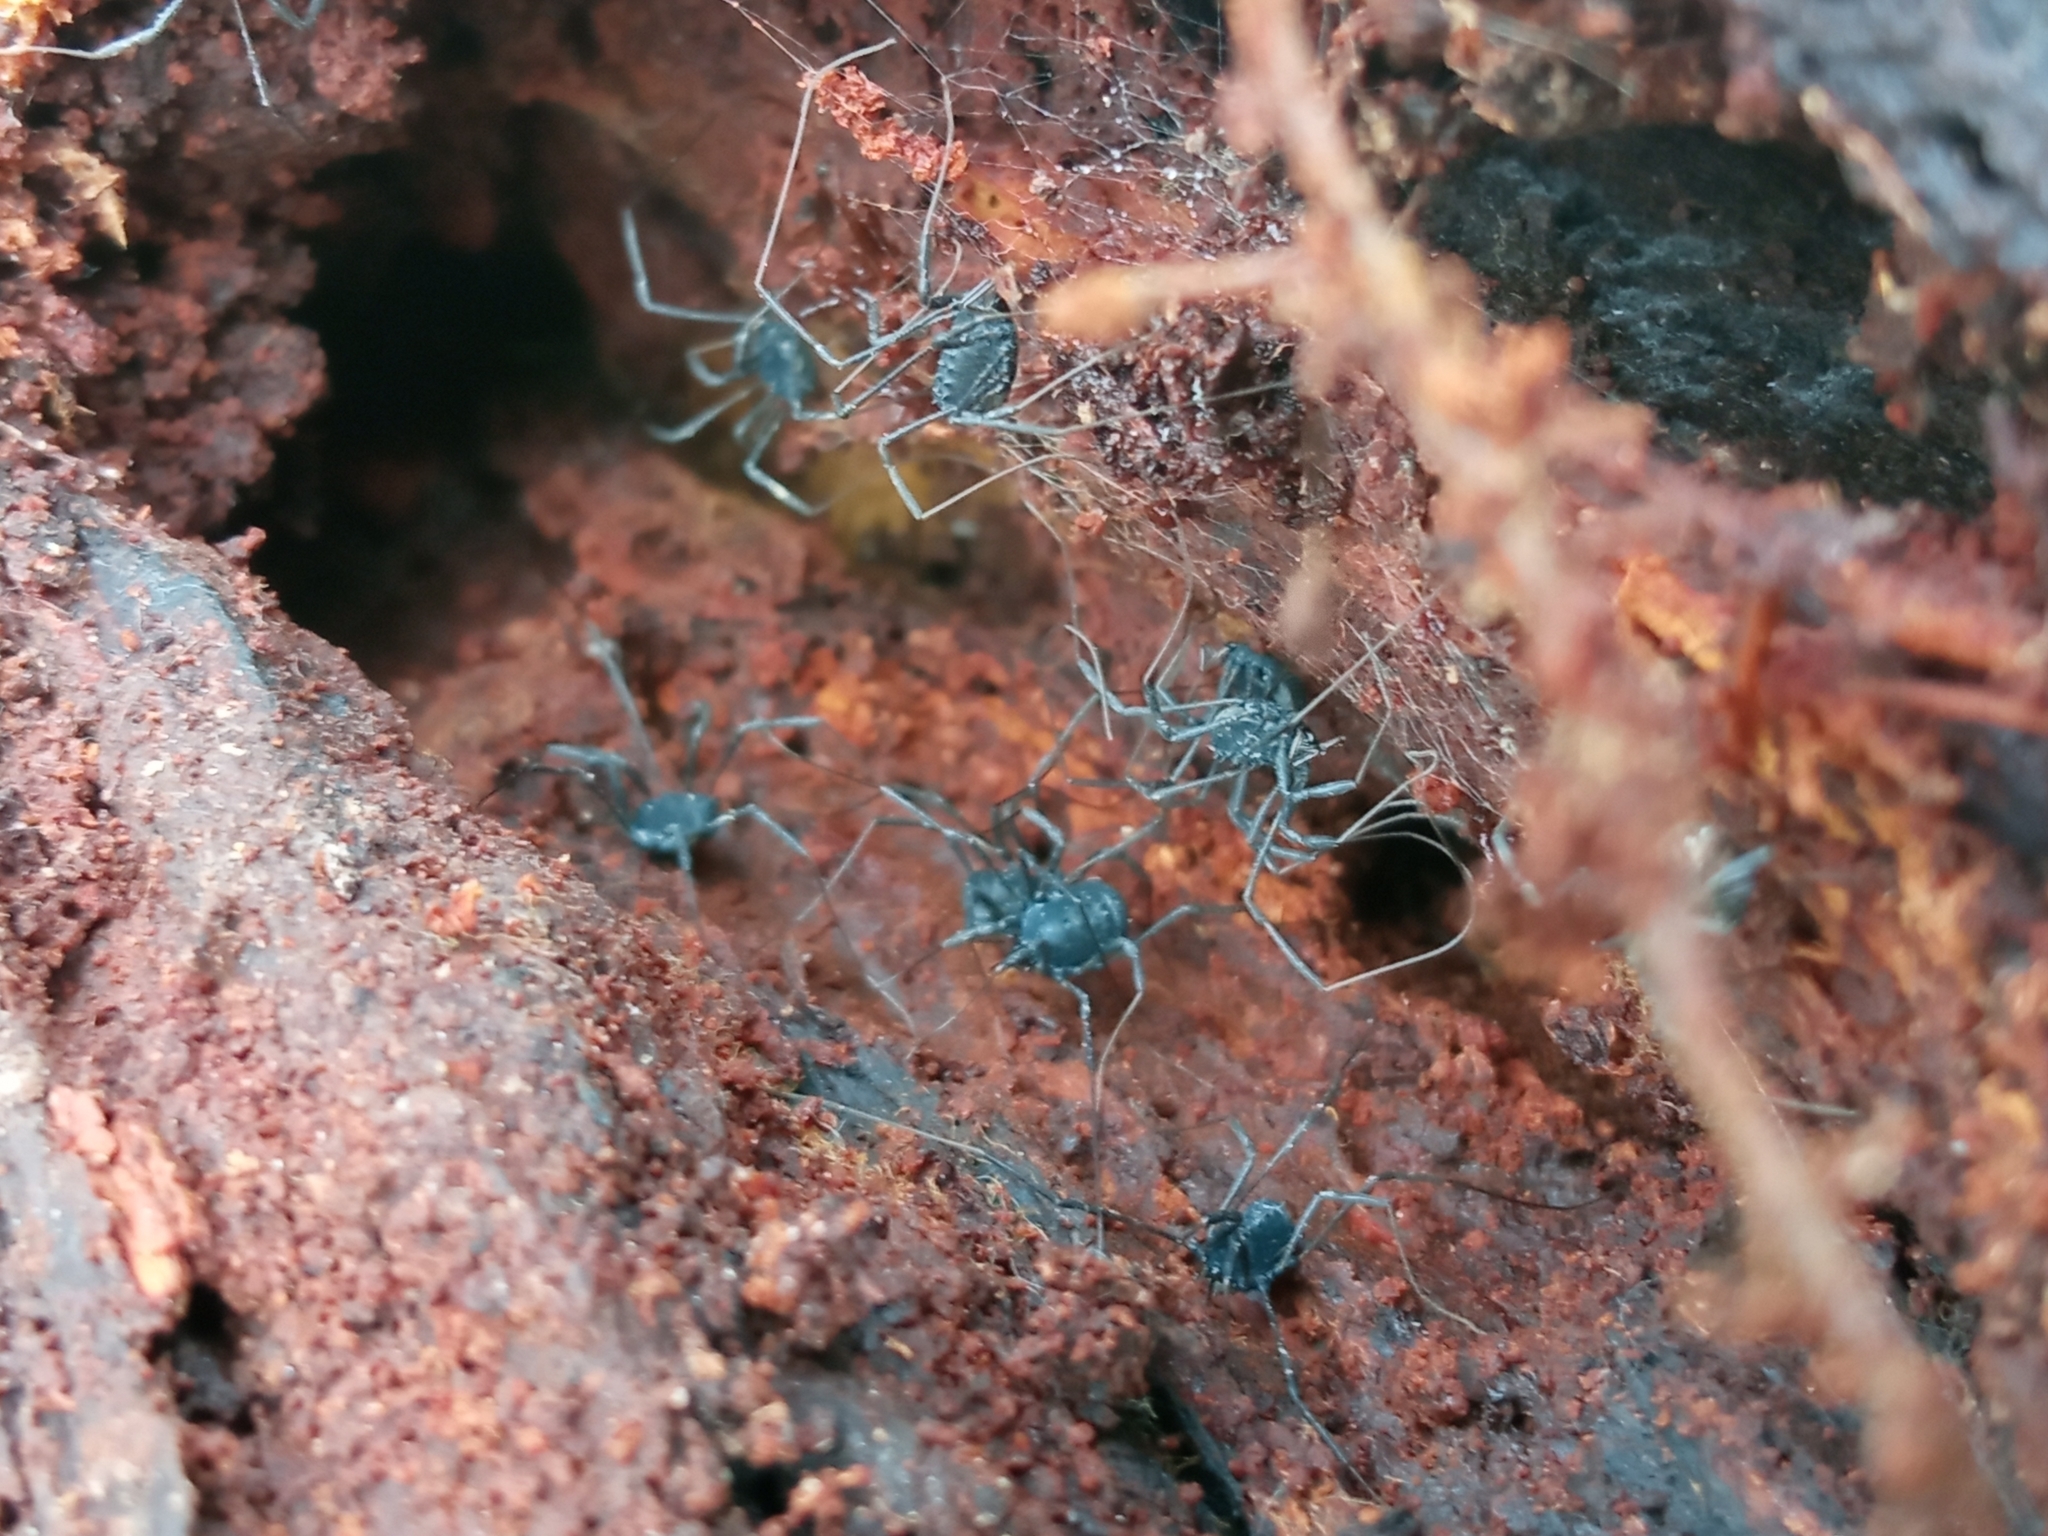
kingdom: Animalia
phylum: Arthropoda
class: Arachnida
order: Opiliones
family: Nemastomatidae
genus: Histricostoma
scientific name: Histricostoma dentipalpe
